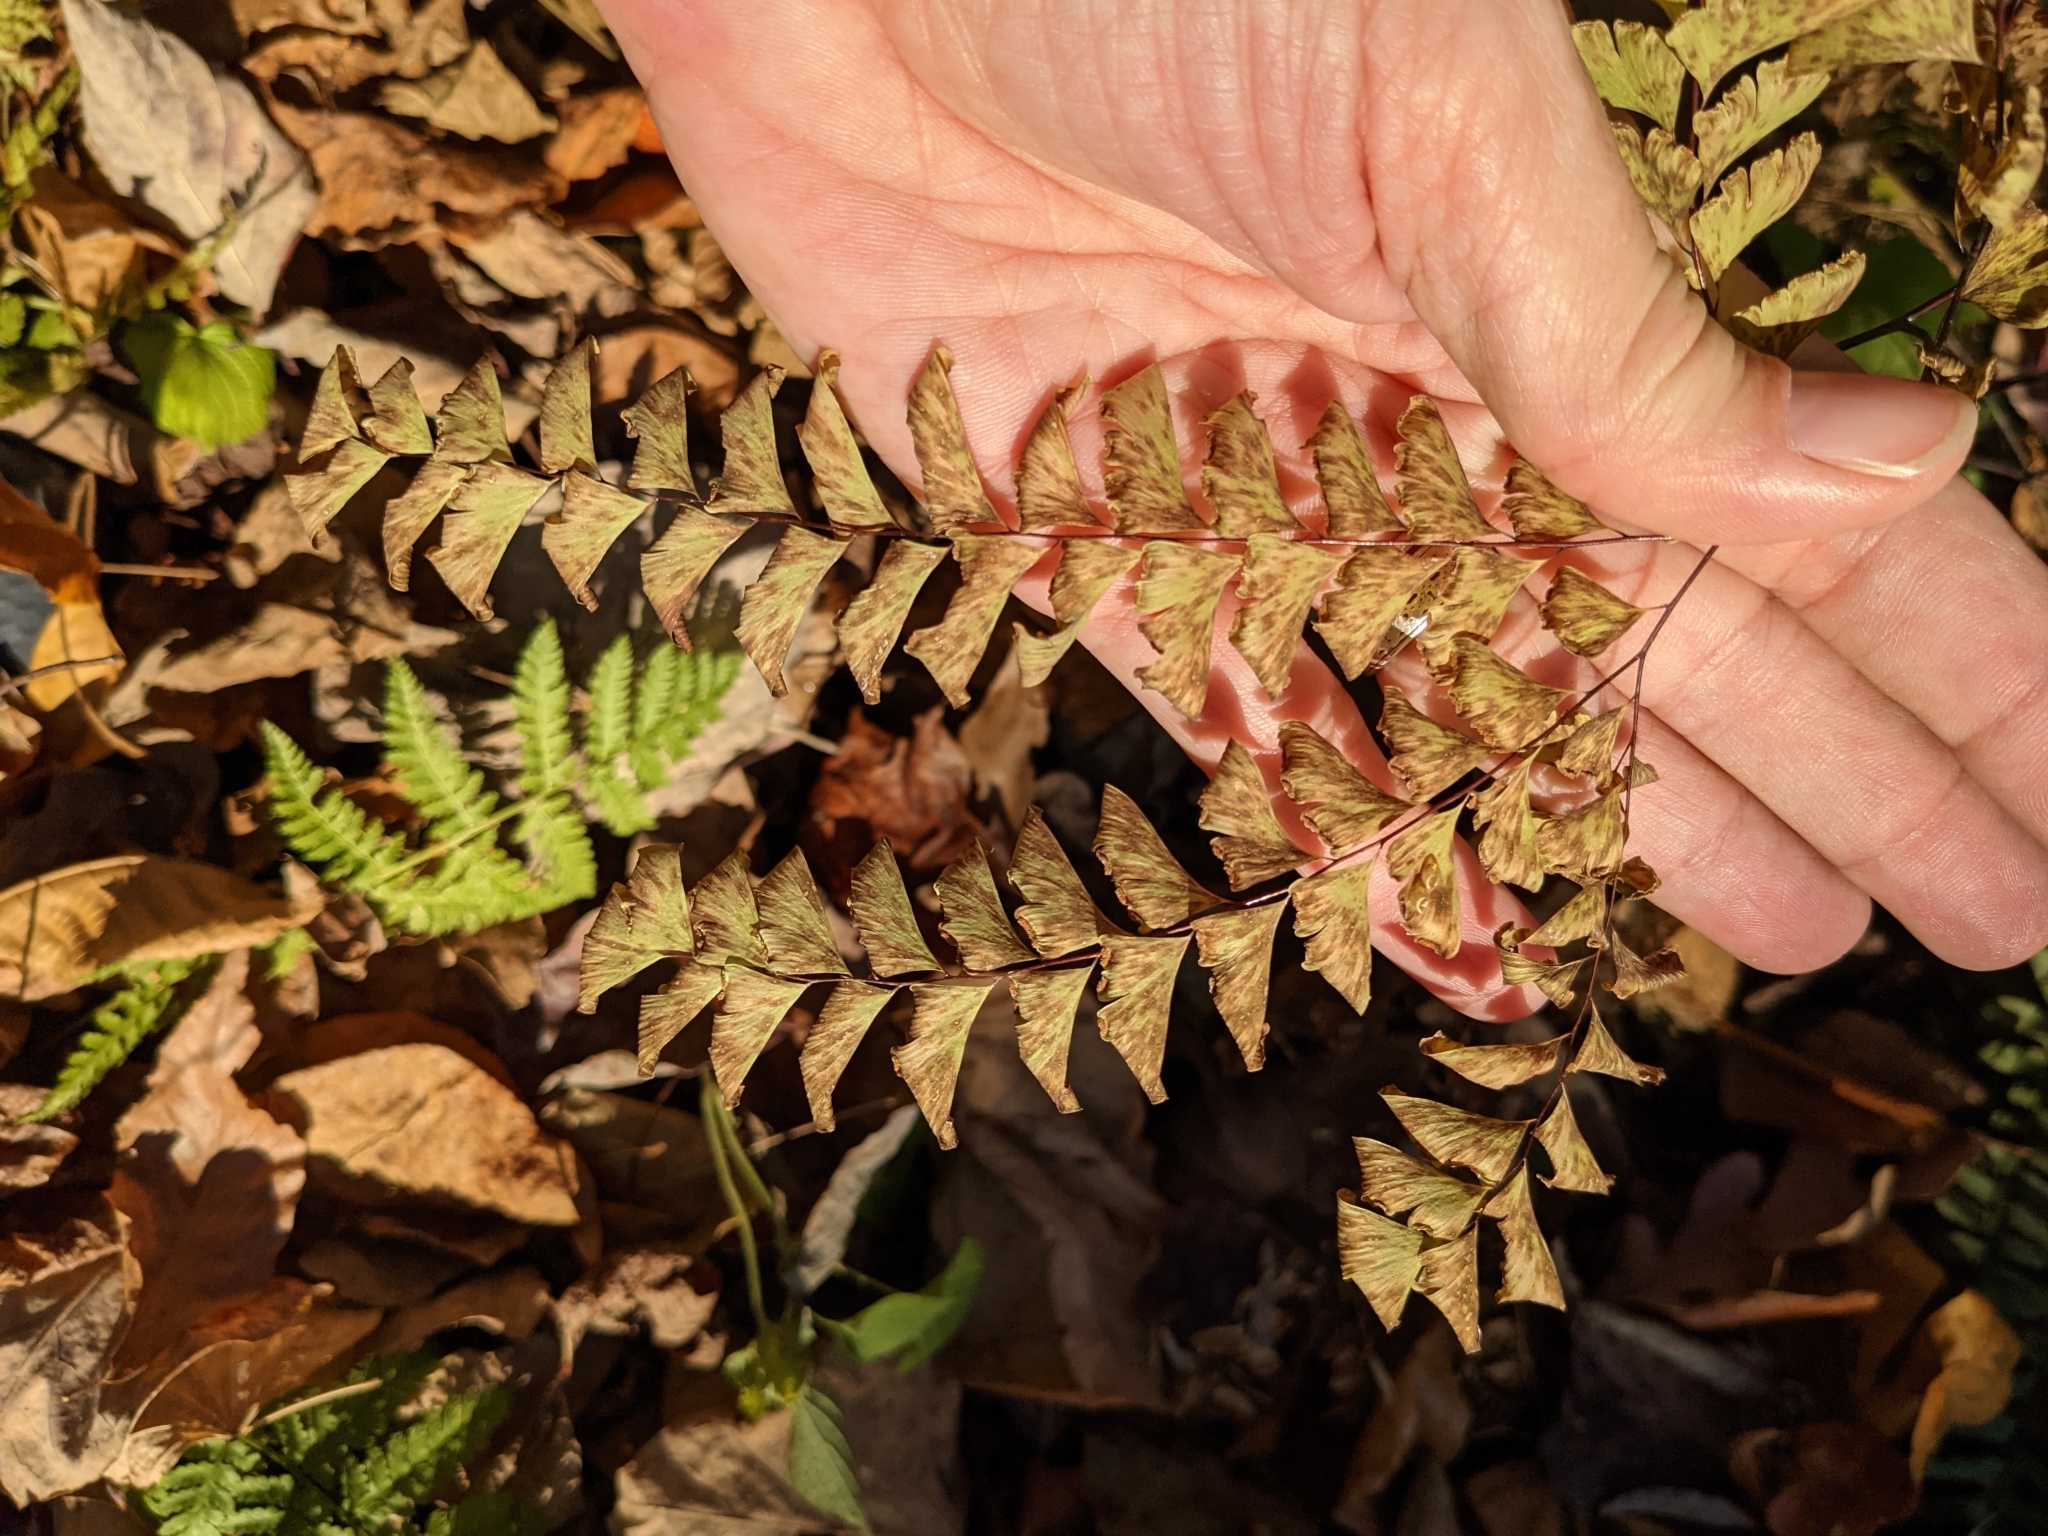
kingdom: Plantae
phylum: Tracheophyta
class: Polypodiopsida
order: Polypodiales
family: Pteridaceae
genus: Adiantum
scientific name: Adiantum pedatum
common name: Five-finger fern
